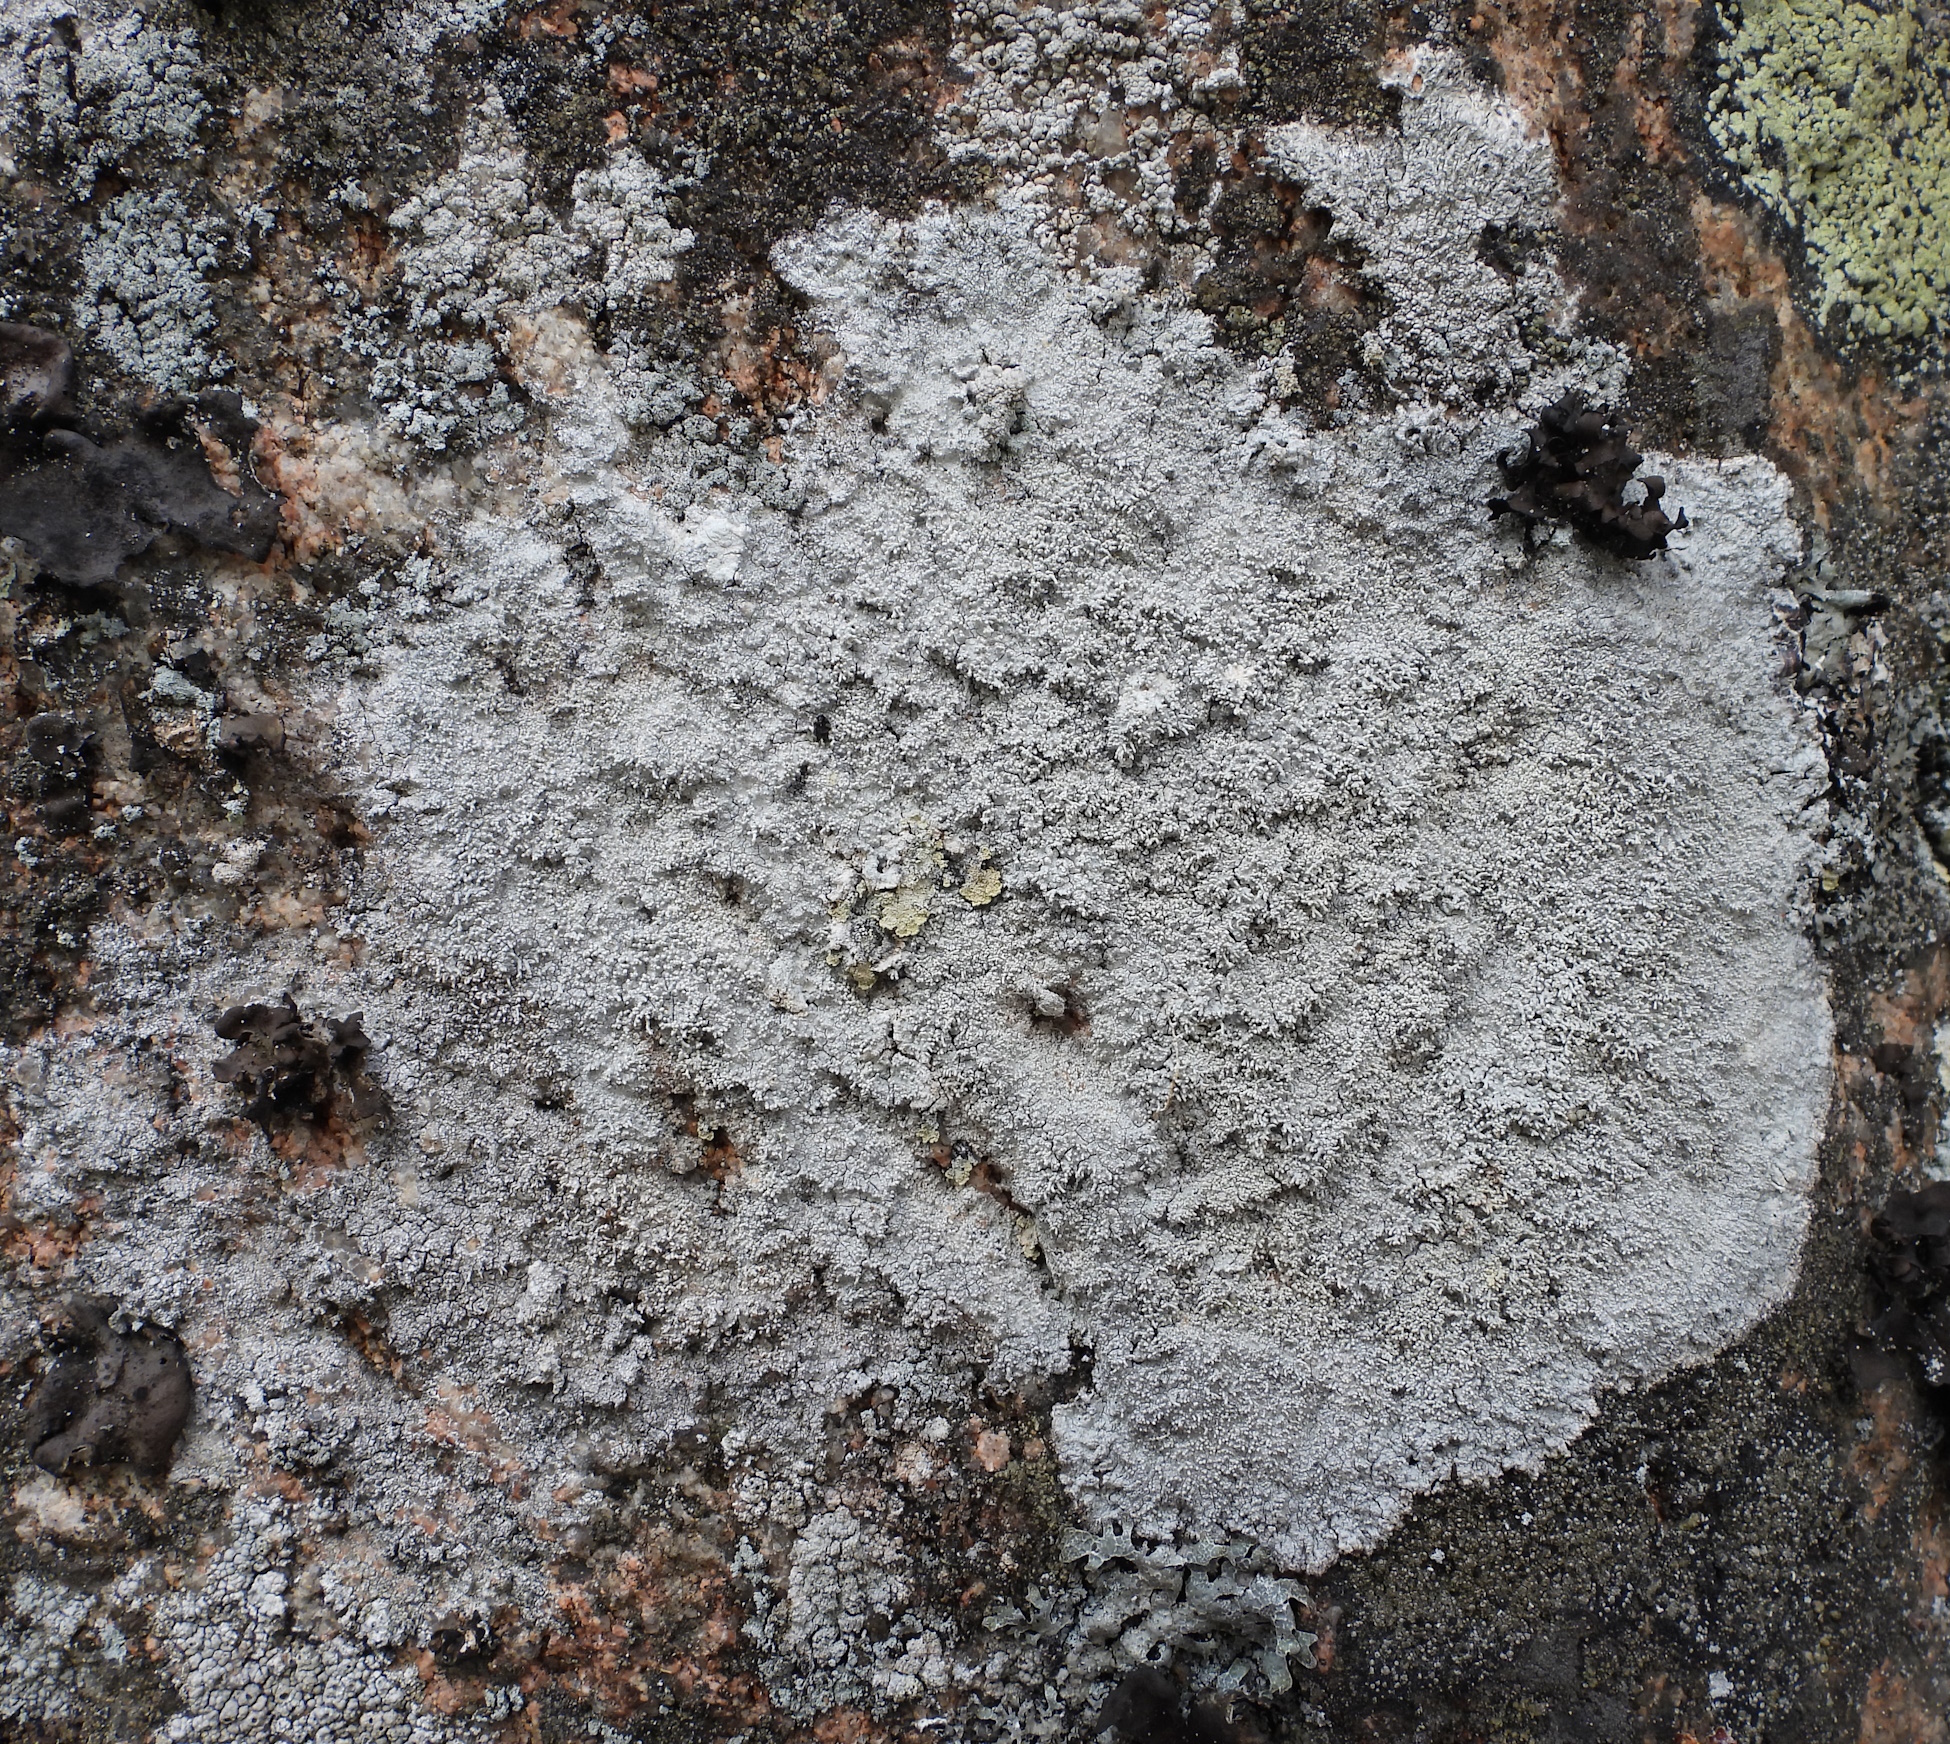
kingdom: Fungi
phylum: Ascomycota
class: Lecanoromycetes
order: Pertusariales
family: Pertusariaceae
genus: Lepra
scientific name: Lepra corallina
